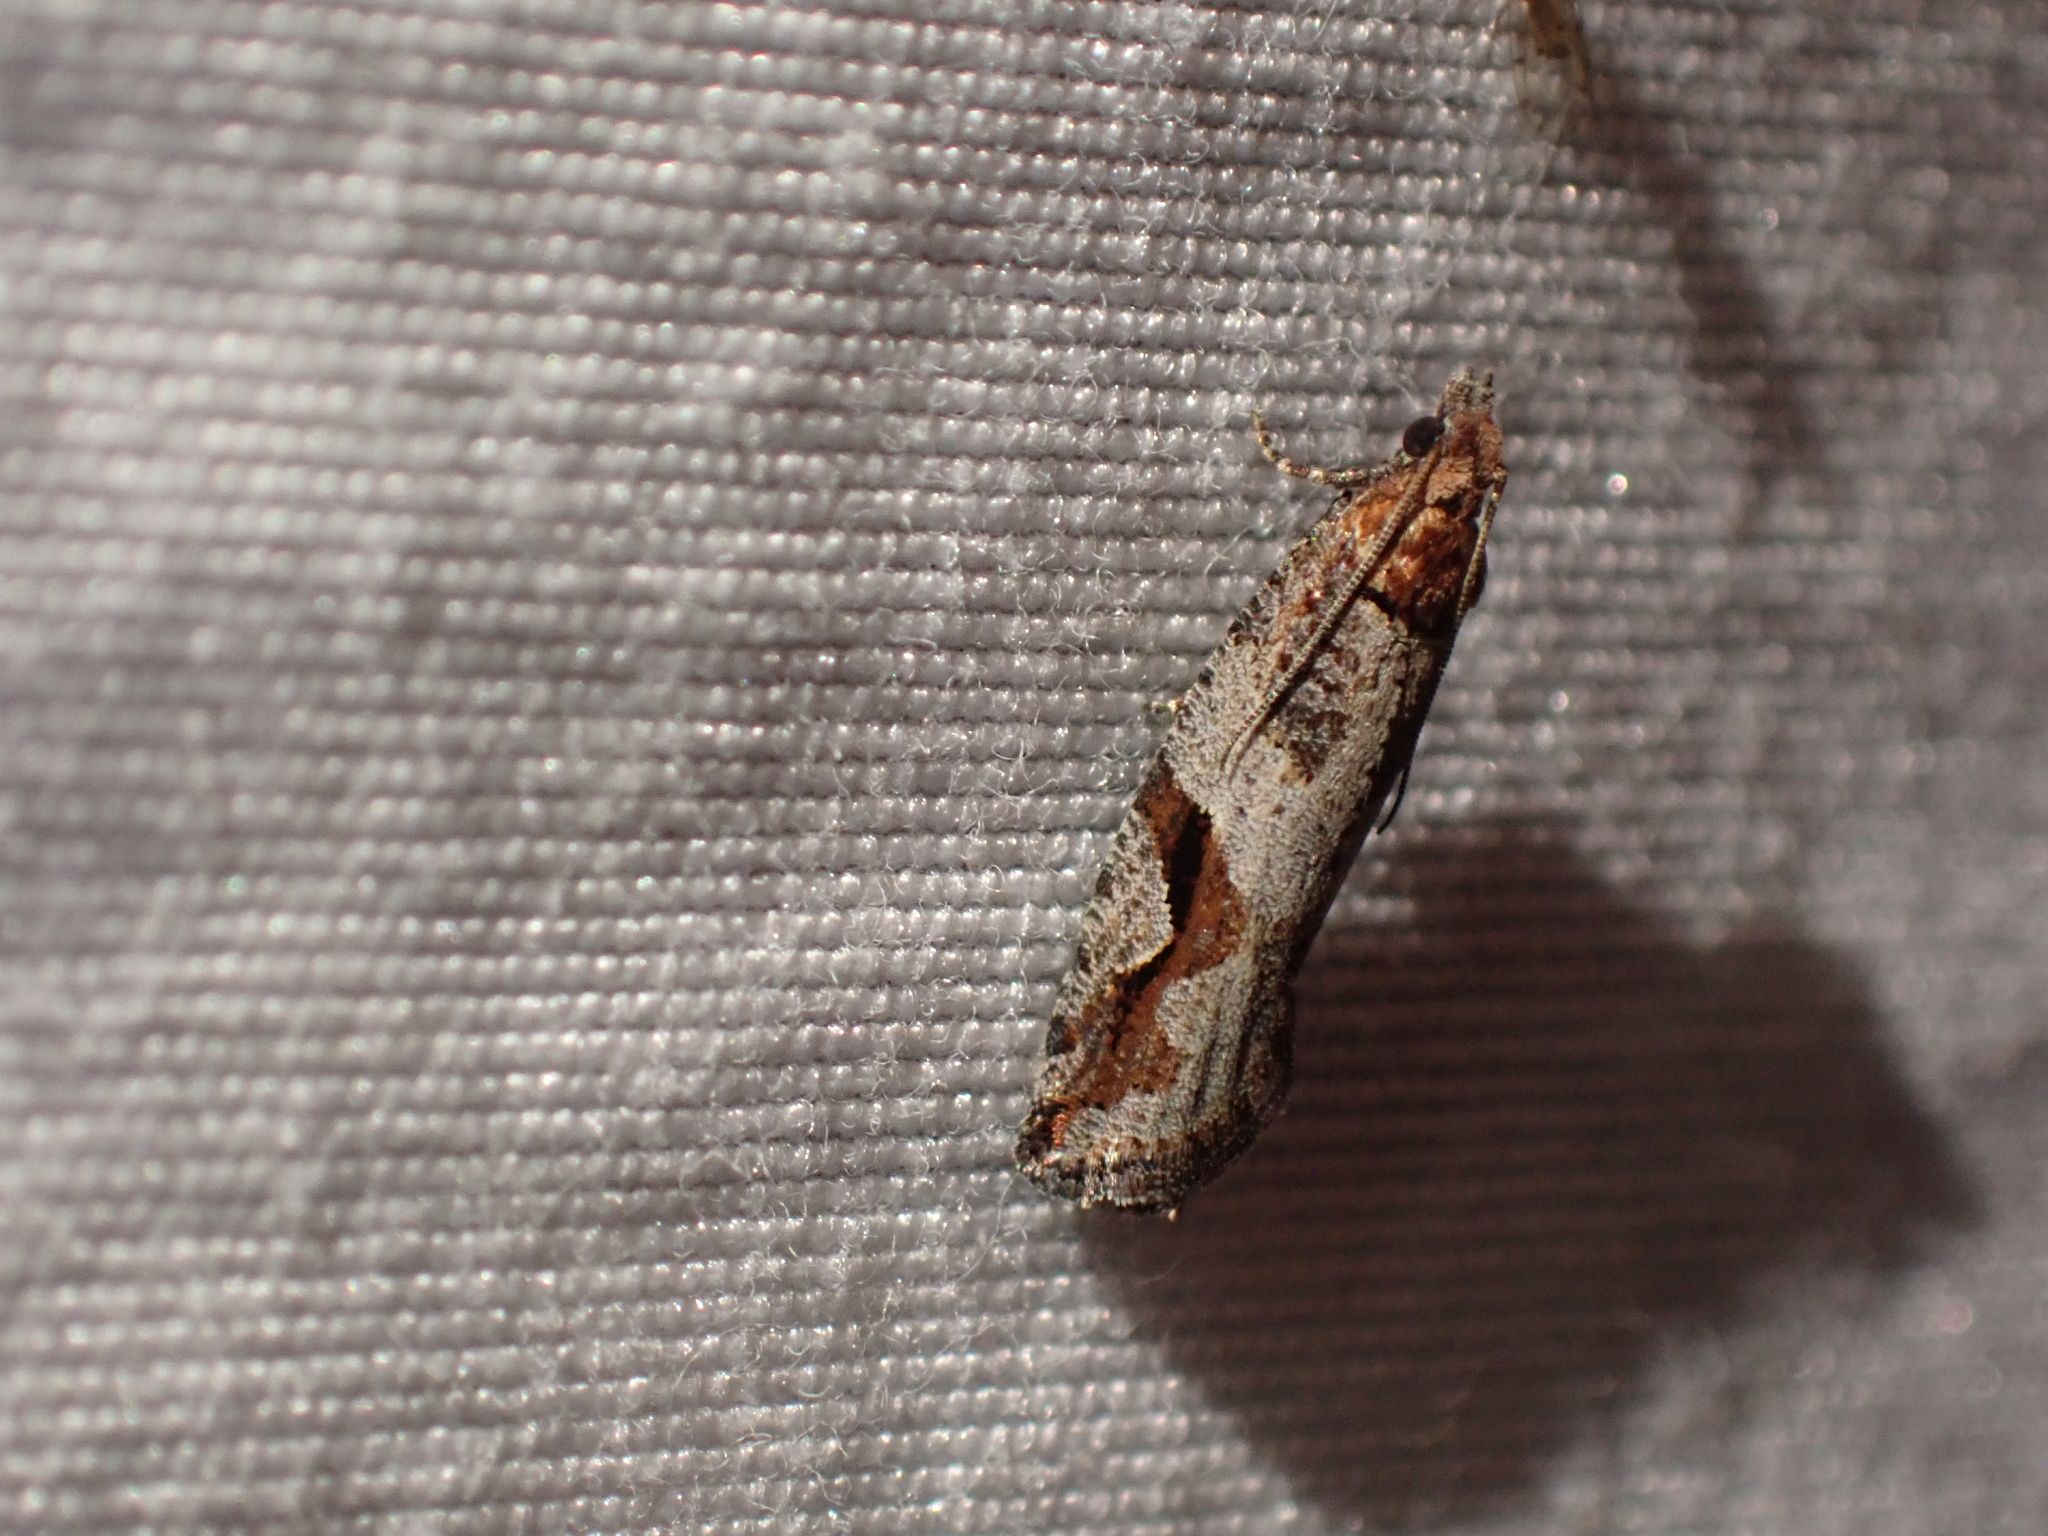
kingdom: Animalia
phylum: Arthropoda
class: Insecta
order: Lepidoptera
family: Tortricidae
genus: Epinotia
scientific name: Epinotia signiferana
